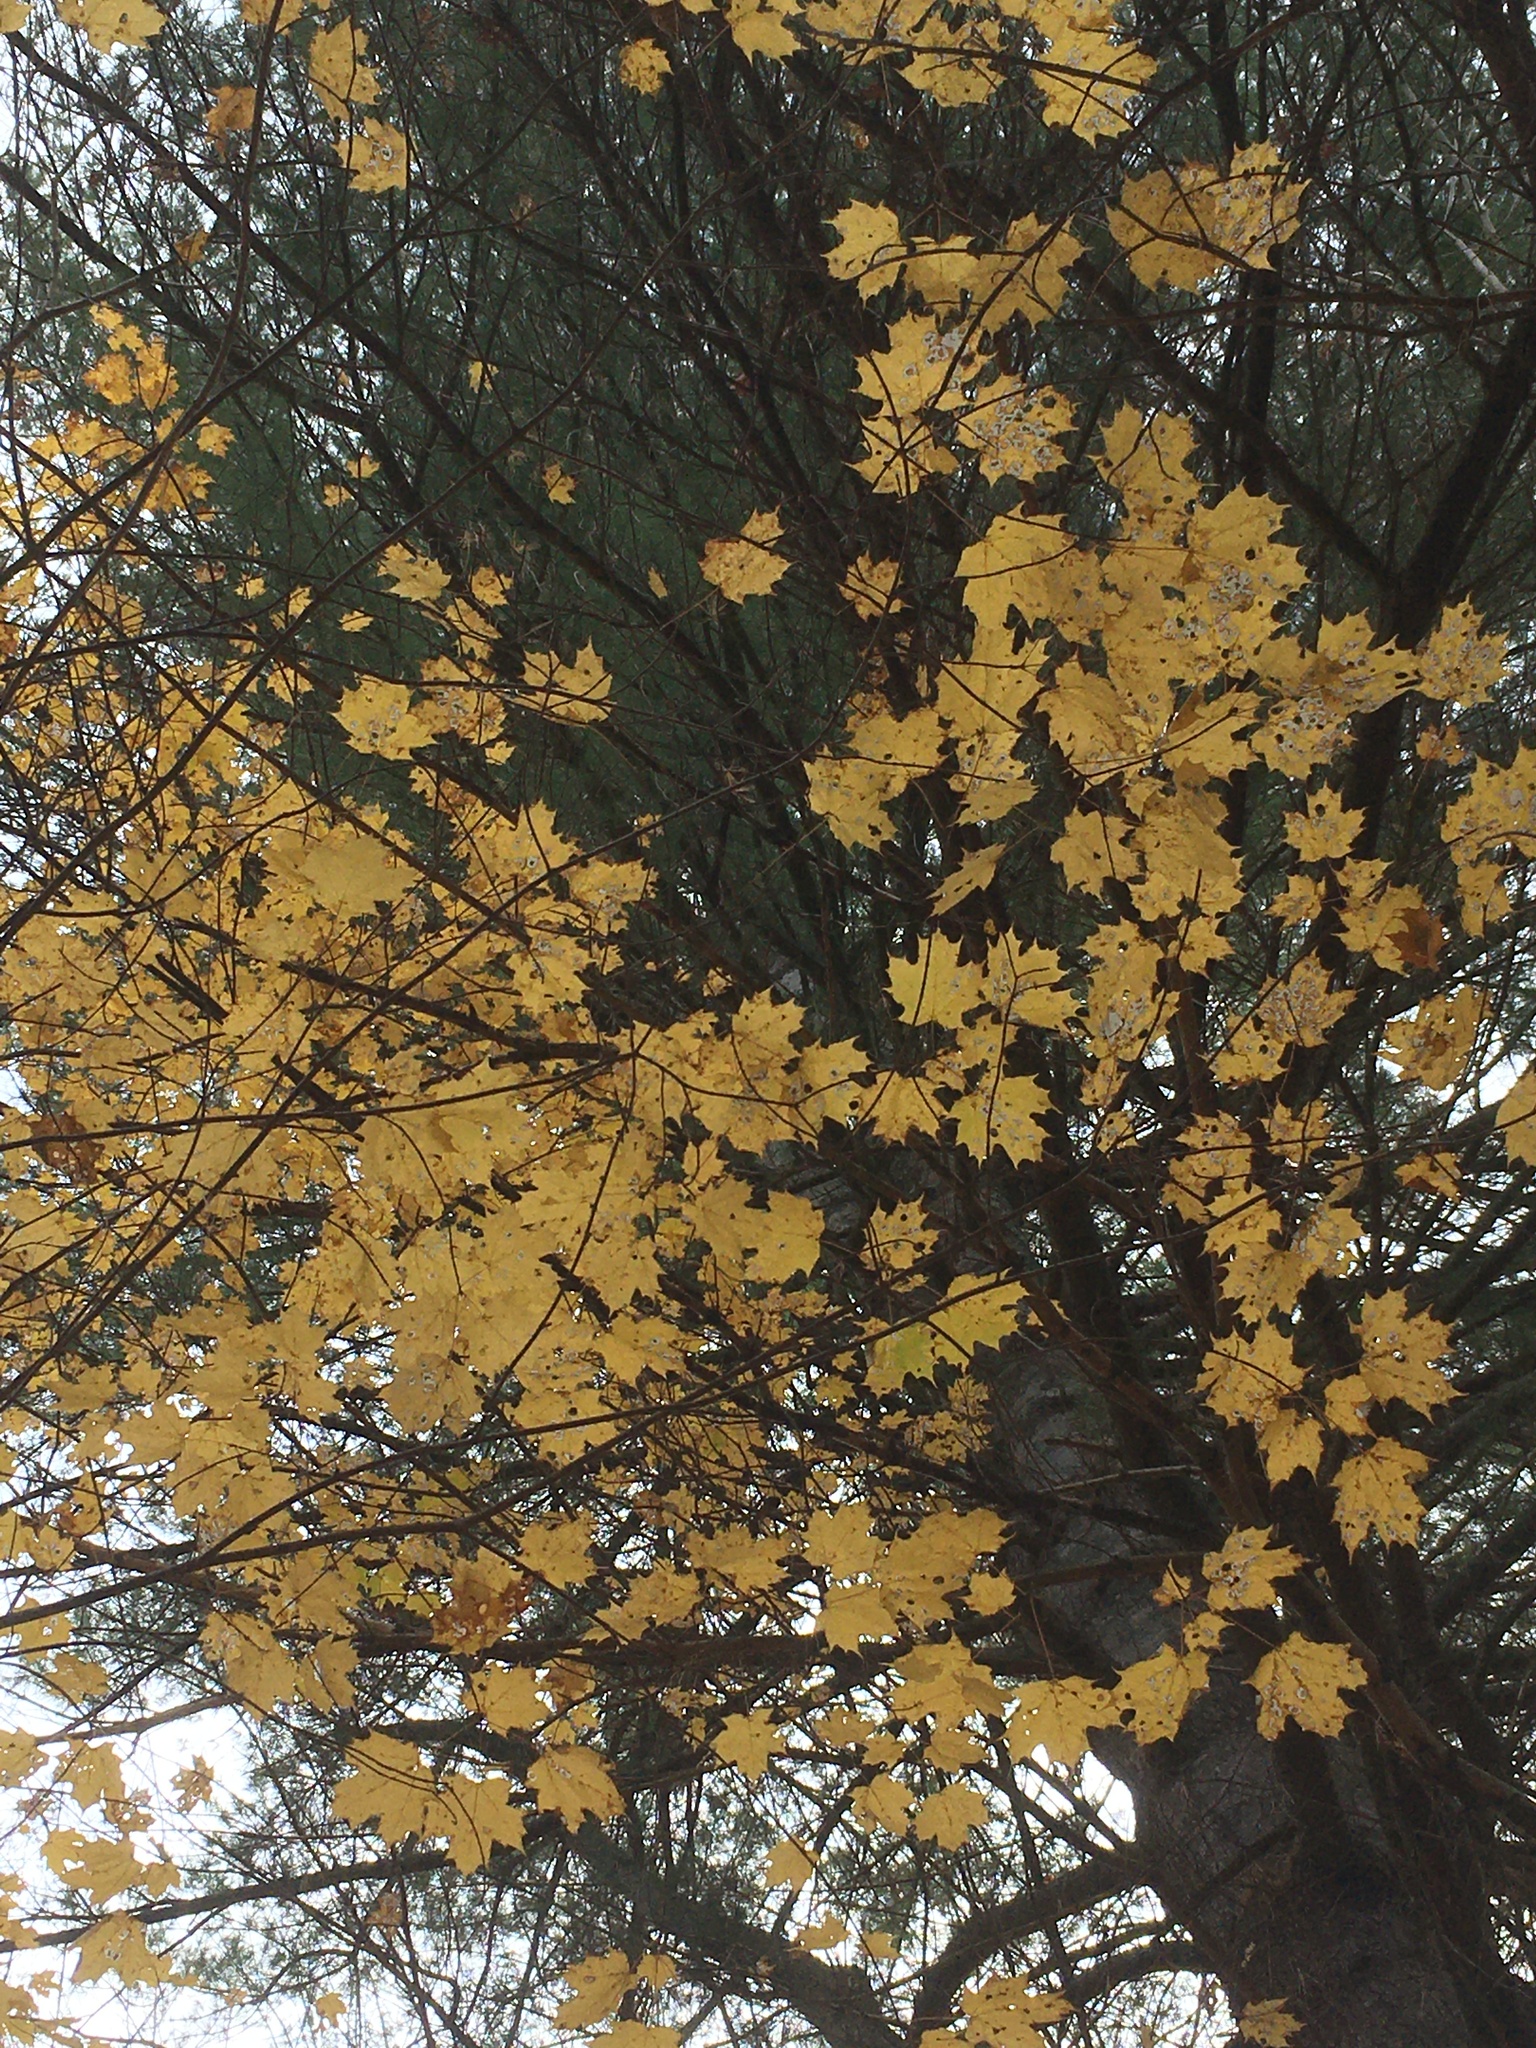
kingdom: Plantae
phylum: Tracheophyta
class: Magnoliopsida
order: Sapindales
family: Sapindaceae
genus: Acer
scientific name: Acer saccharum
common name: Sugar maple
